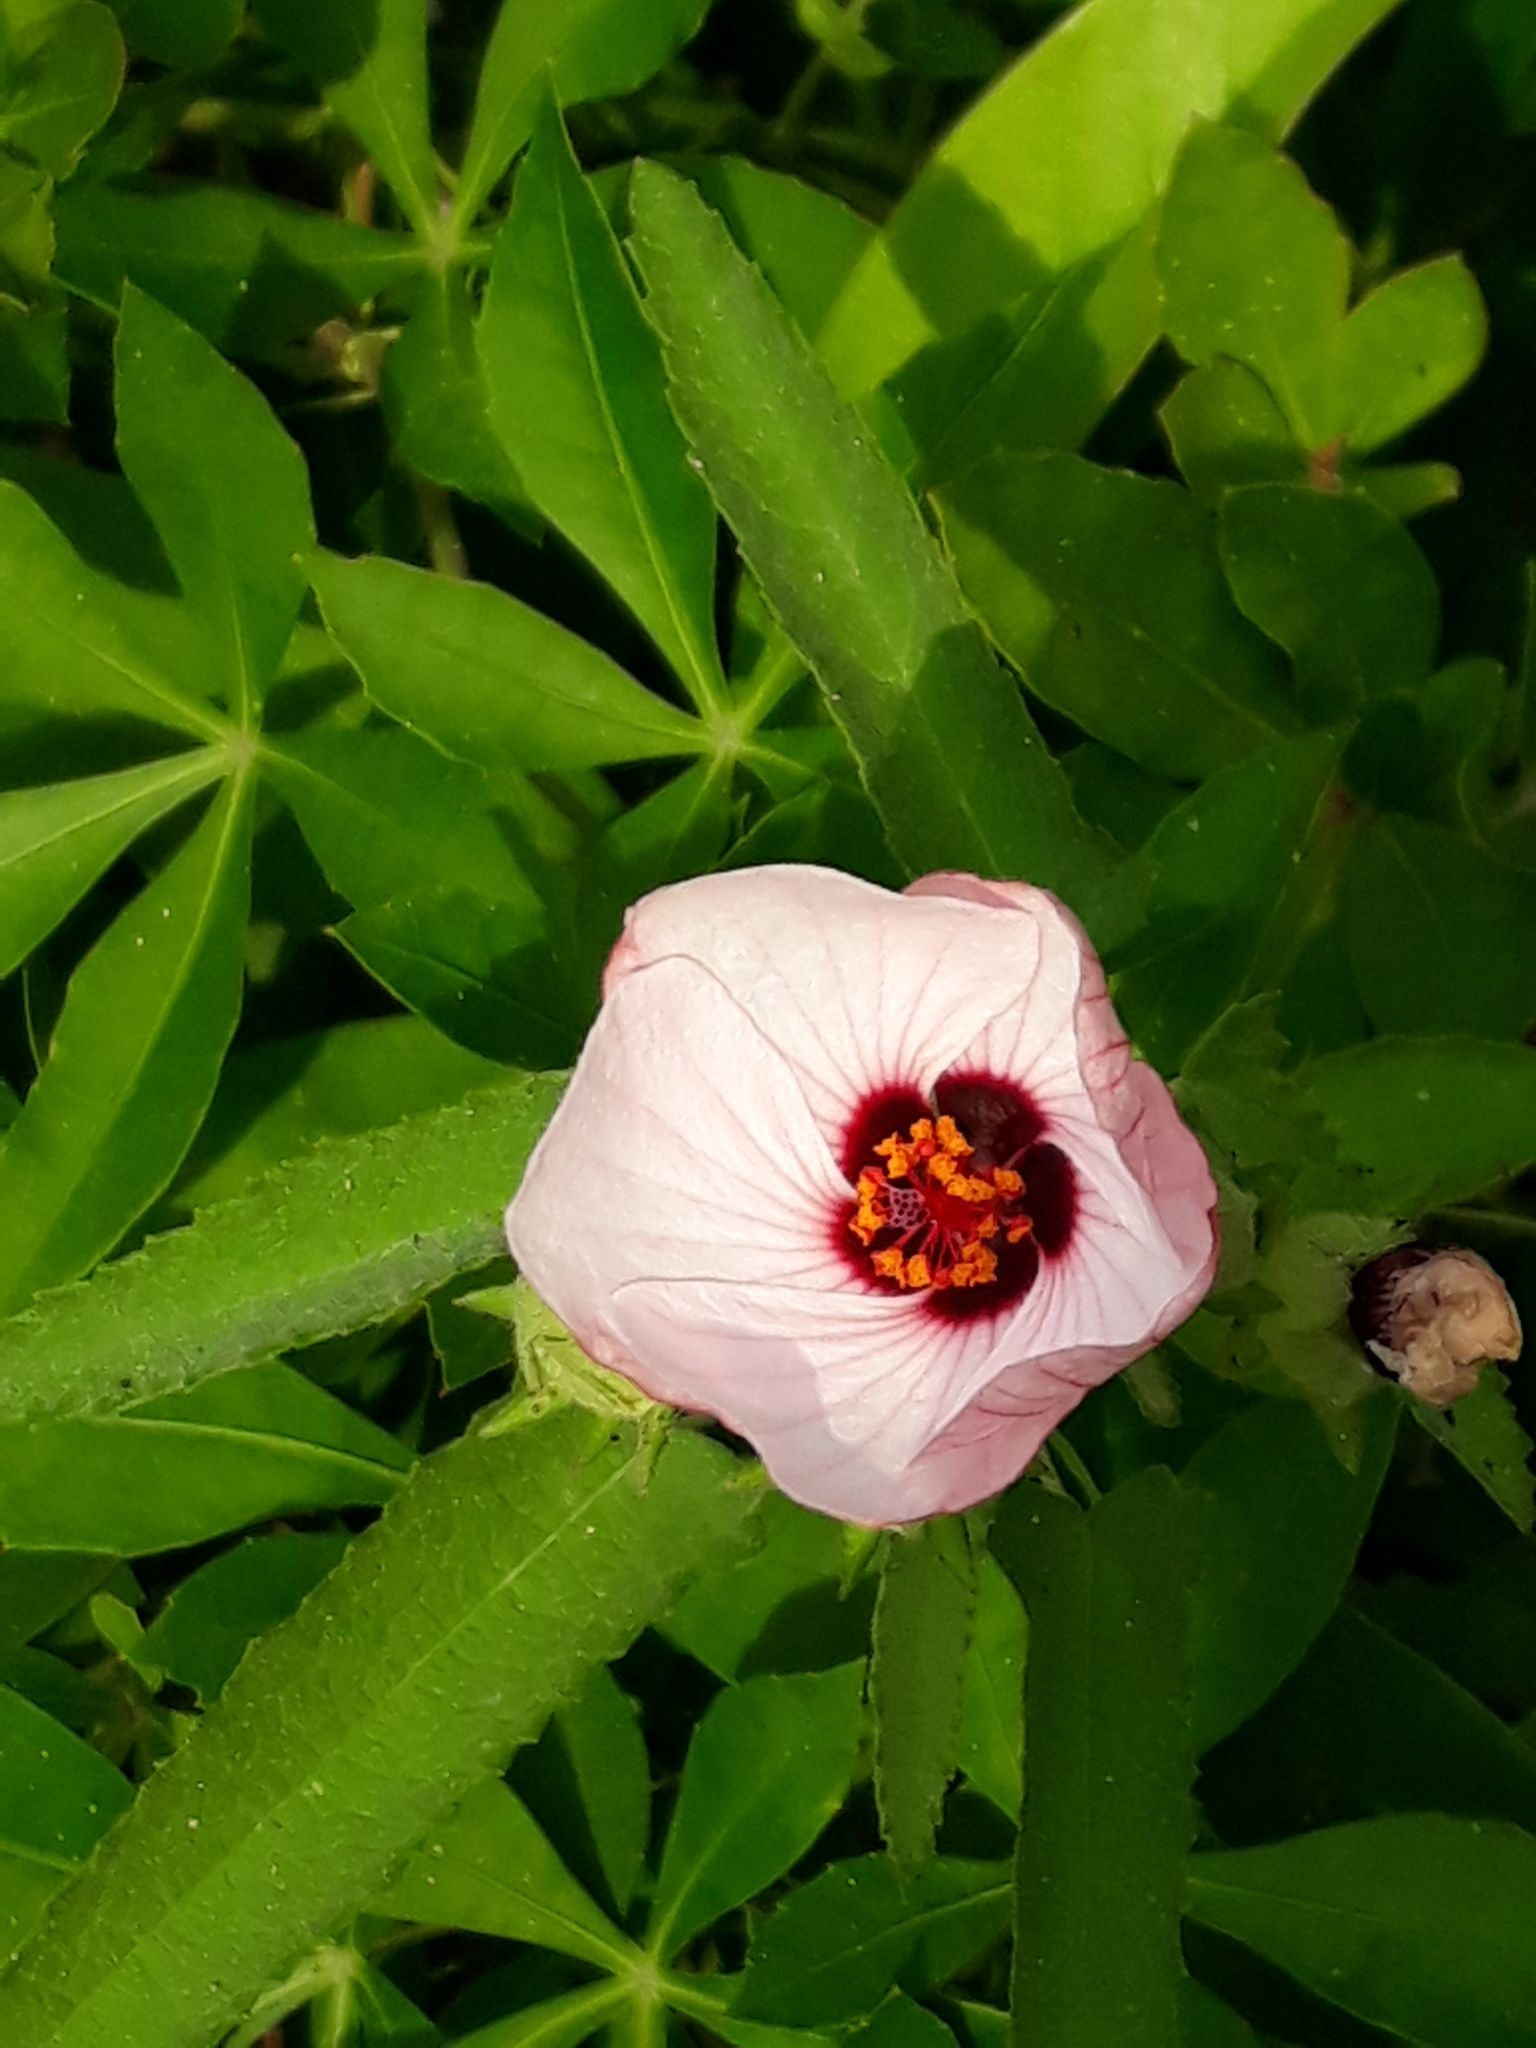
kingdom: Plantae
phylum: Tracheophyta
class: Magnoliopsida
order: Malvales
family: Malvaceae
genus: Pavonia
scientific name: Pavonia hastata
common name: Spearleaf swampmallow
